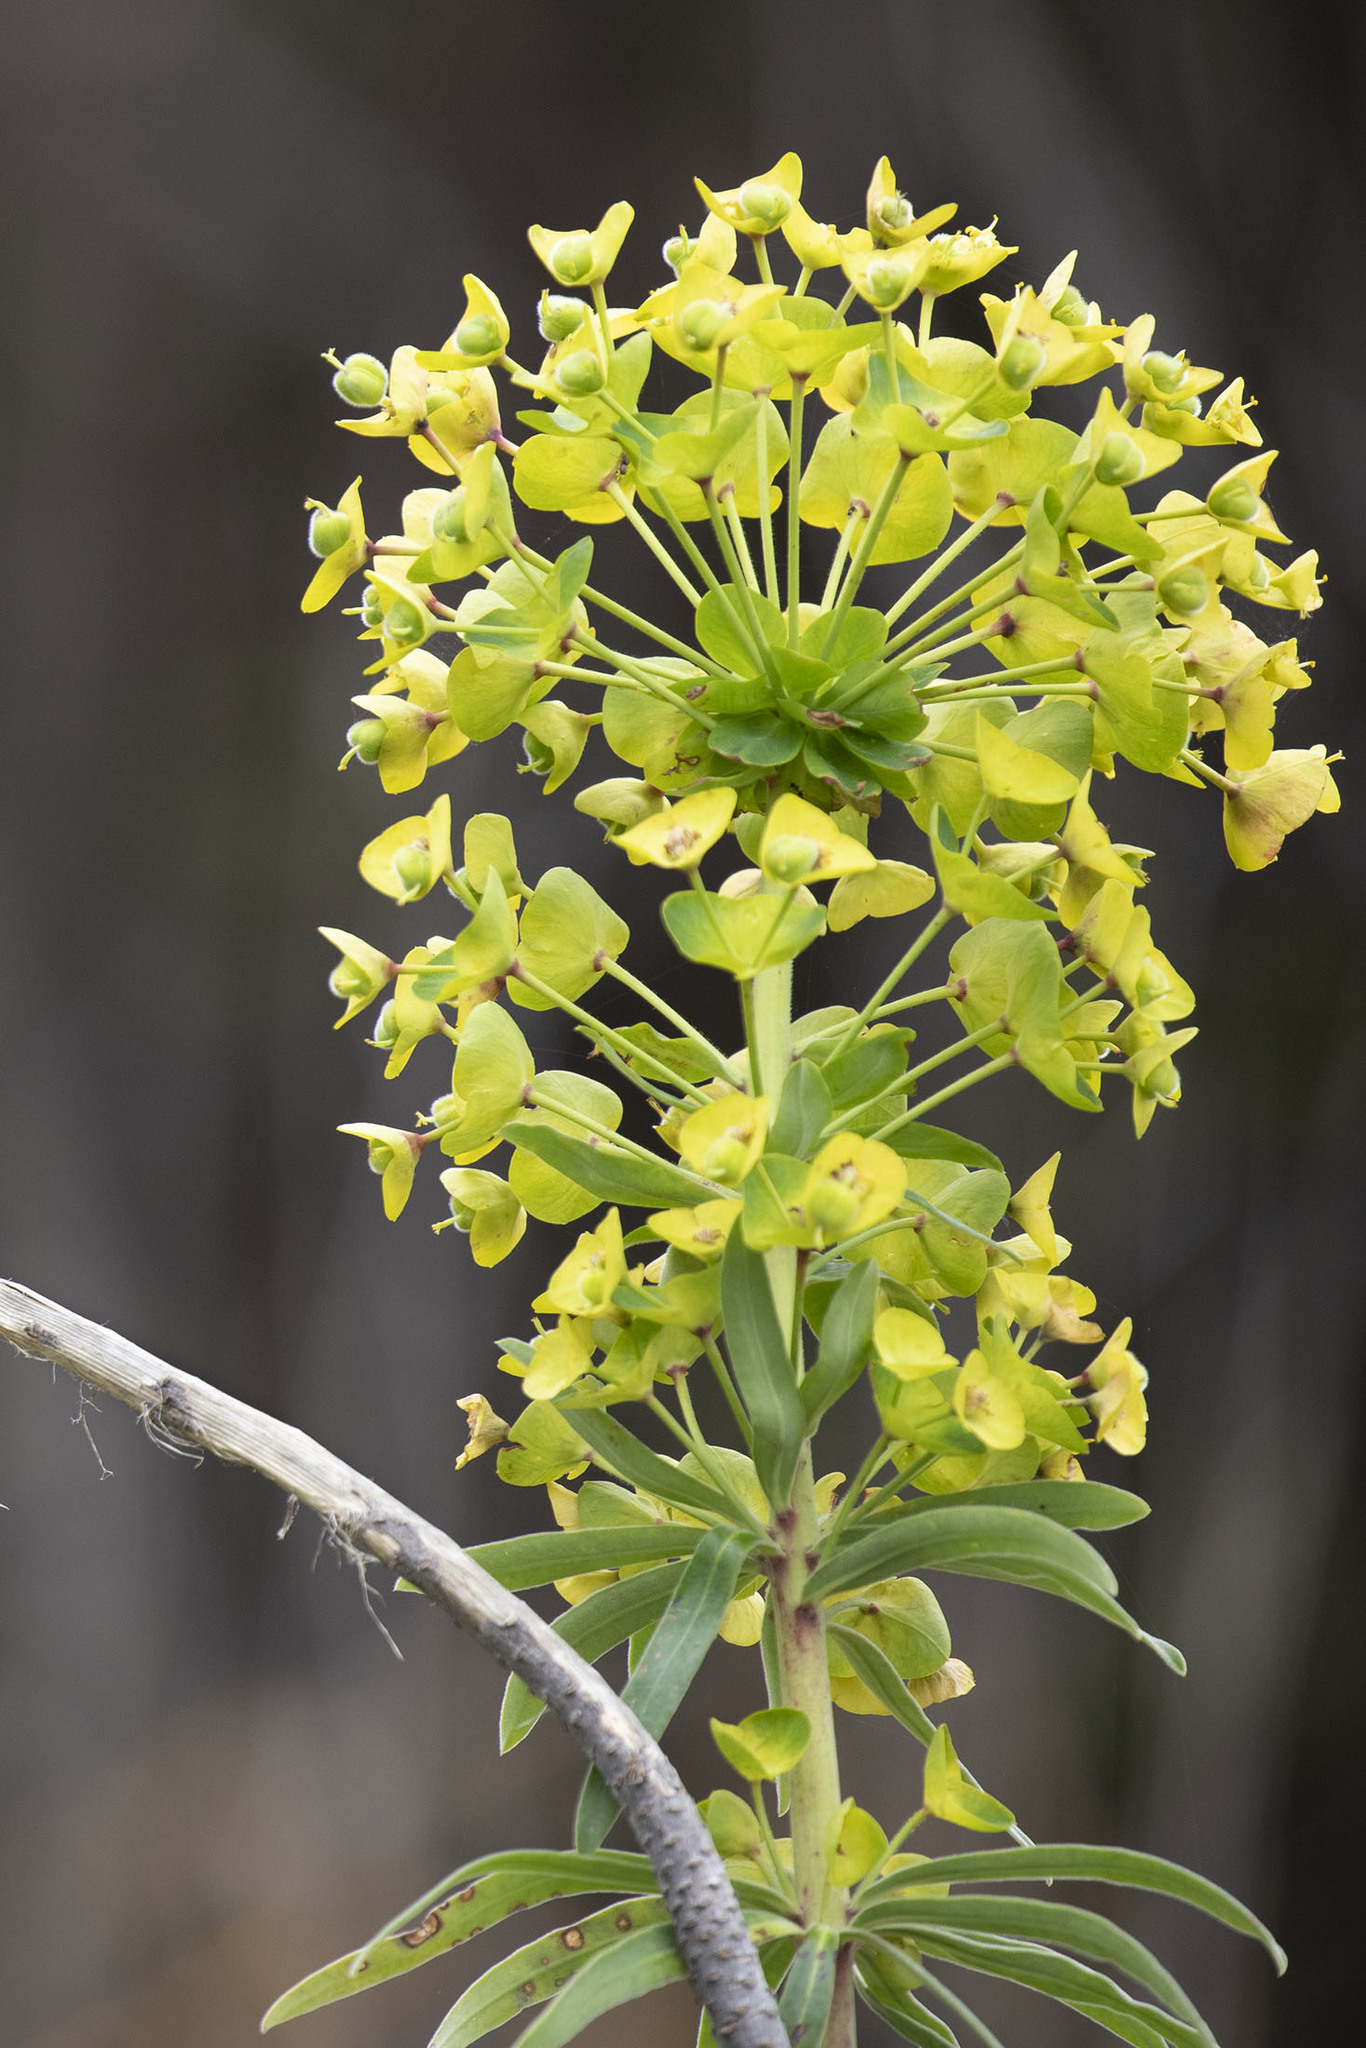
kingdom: Plantae
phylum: Tracheophyta
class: Magnoliopsida
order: Malpighiales
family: Euphorbiaceae
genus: Euphorbia
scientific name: Euphorbia characias
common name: Mediterranean spurge
